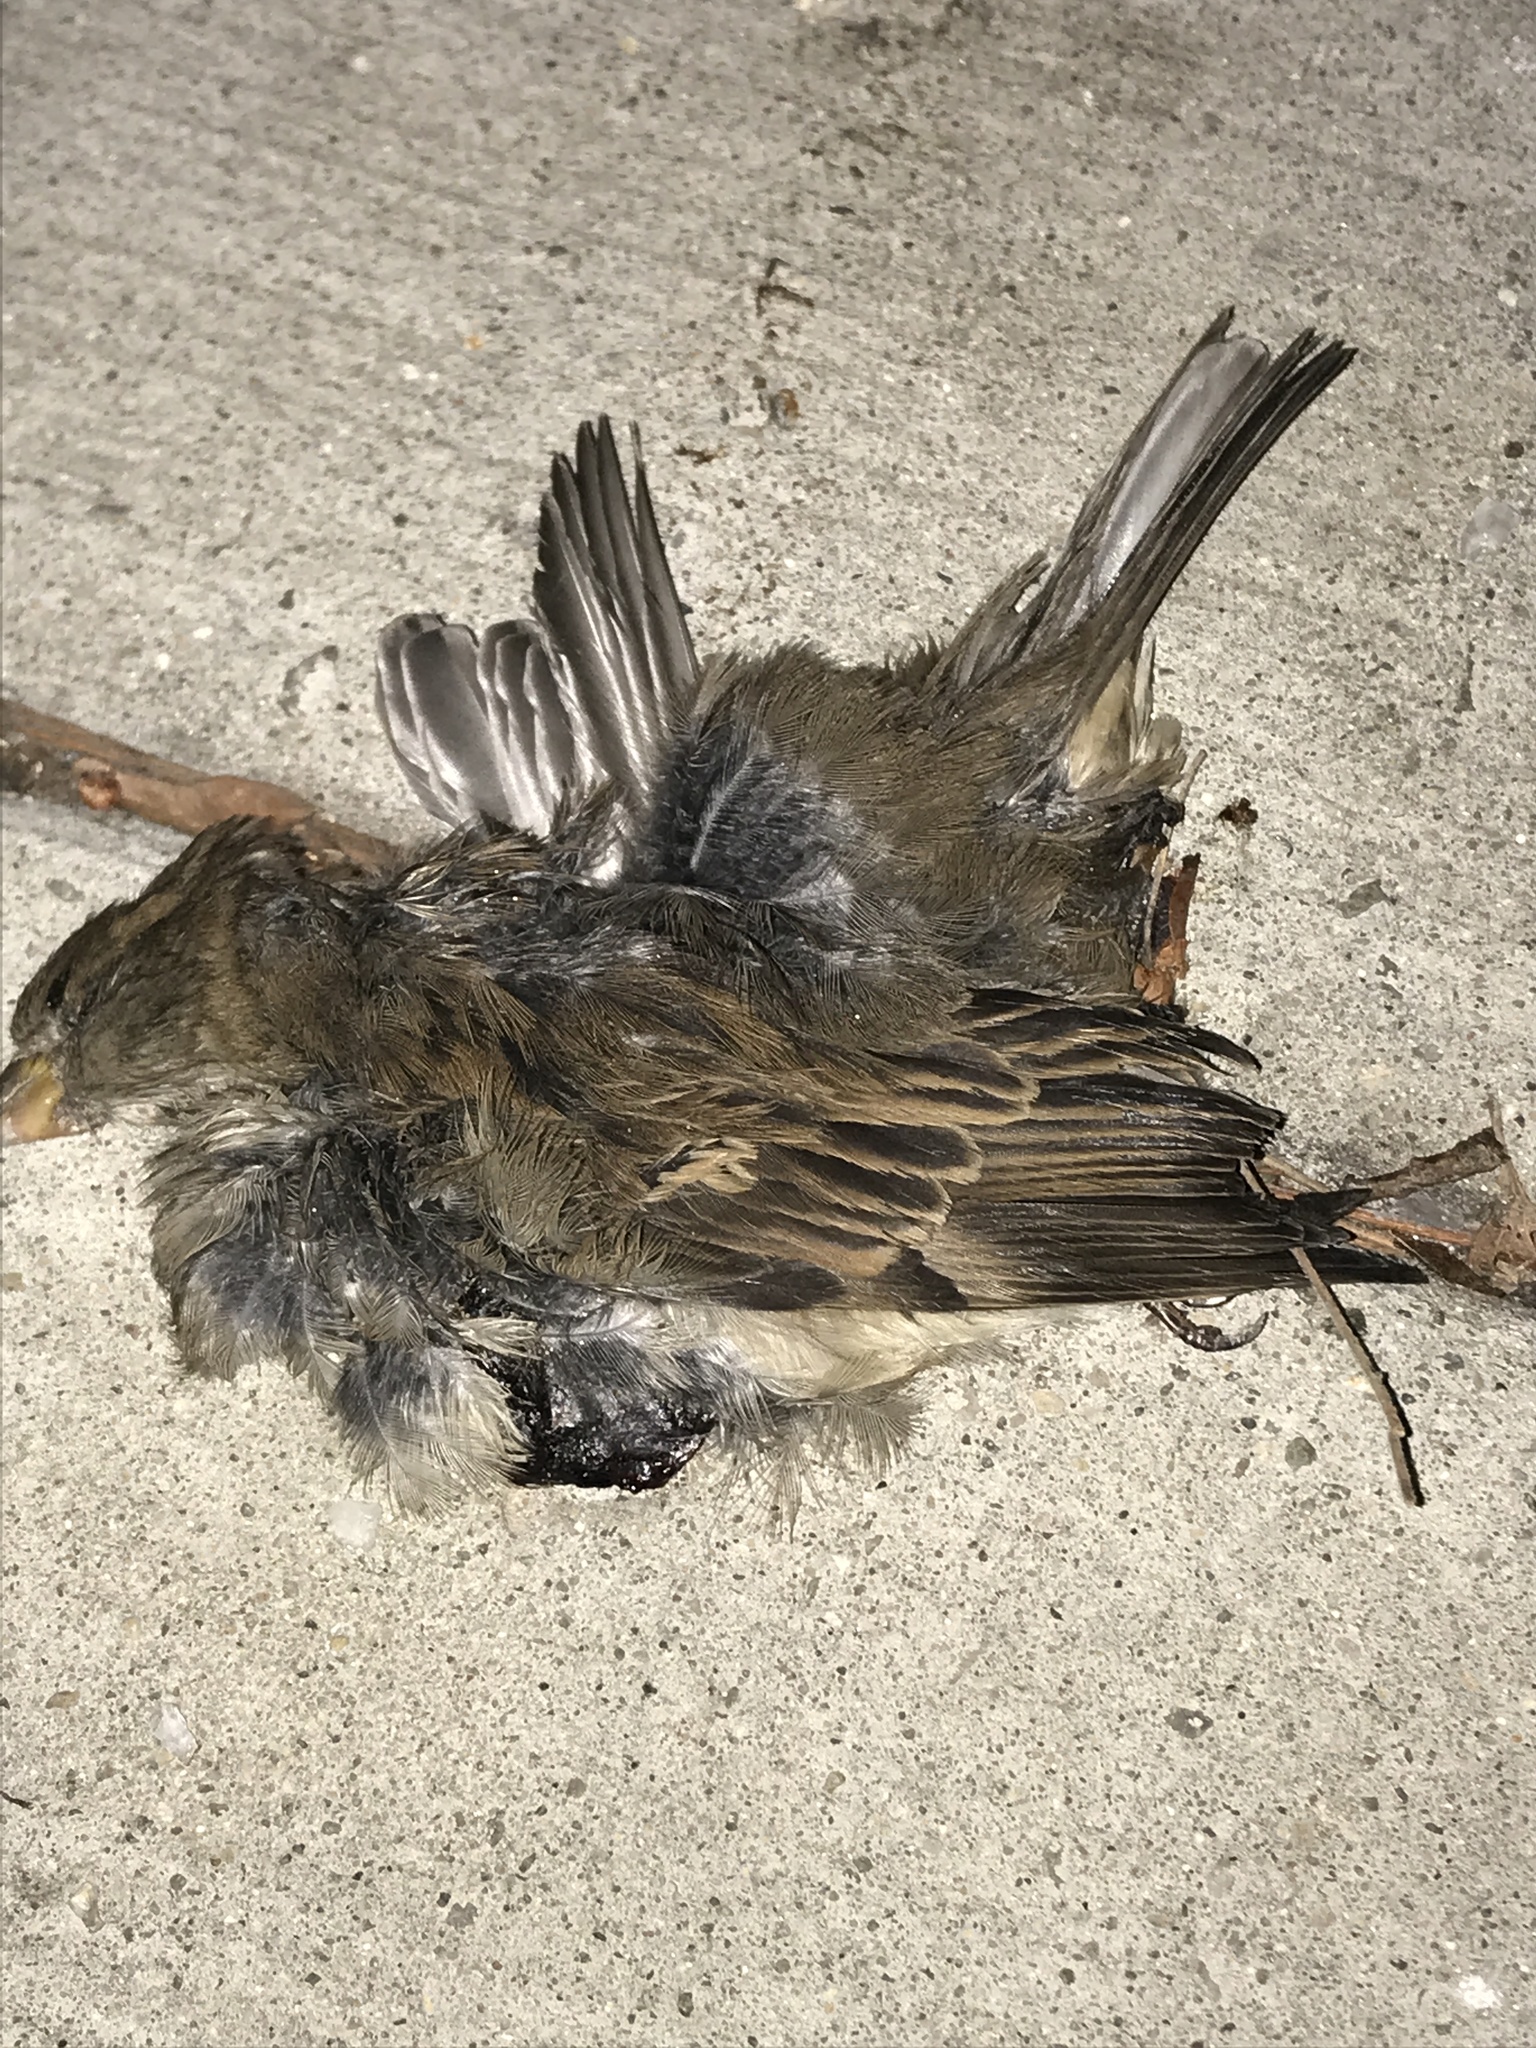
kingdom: Animalia
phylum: Chordata
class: Aves
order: Passeriformes
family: Passeridae
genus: Passer
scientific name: Passer domesticus
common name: House sparrow
